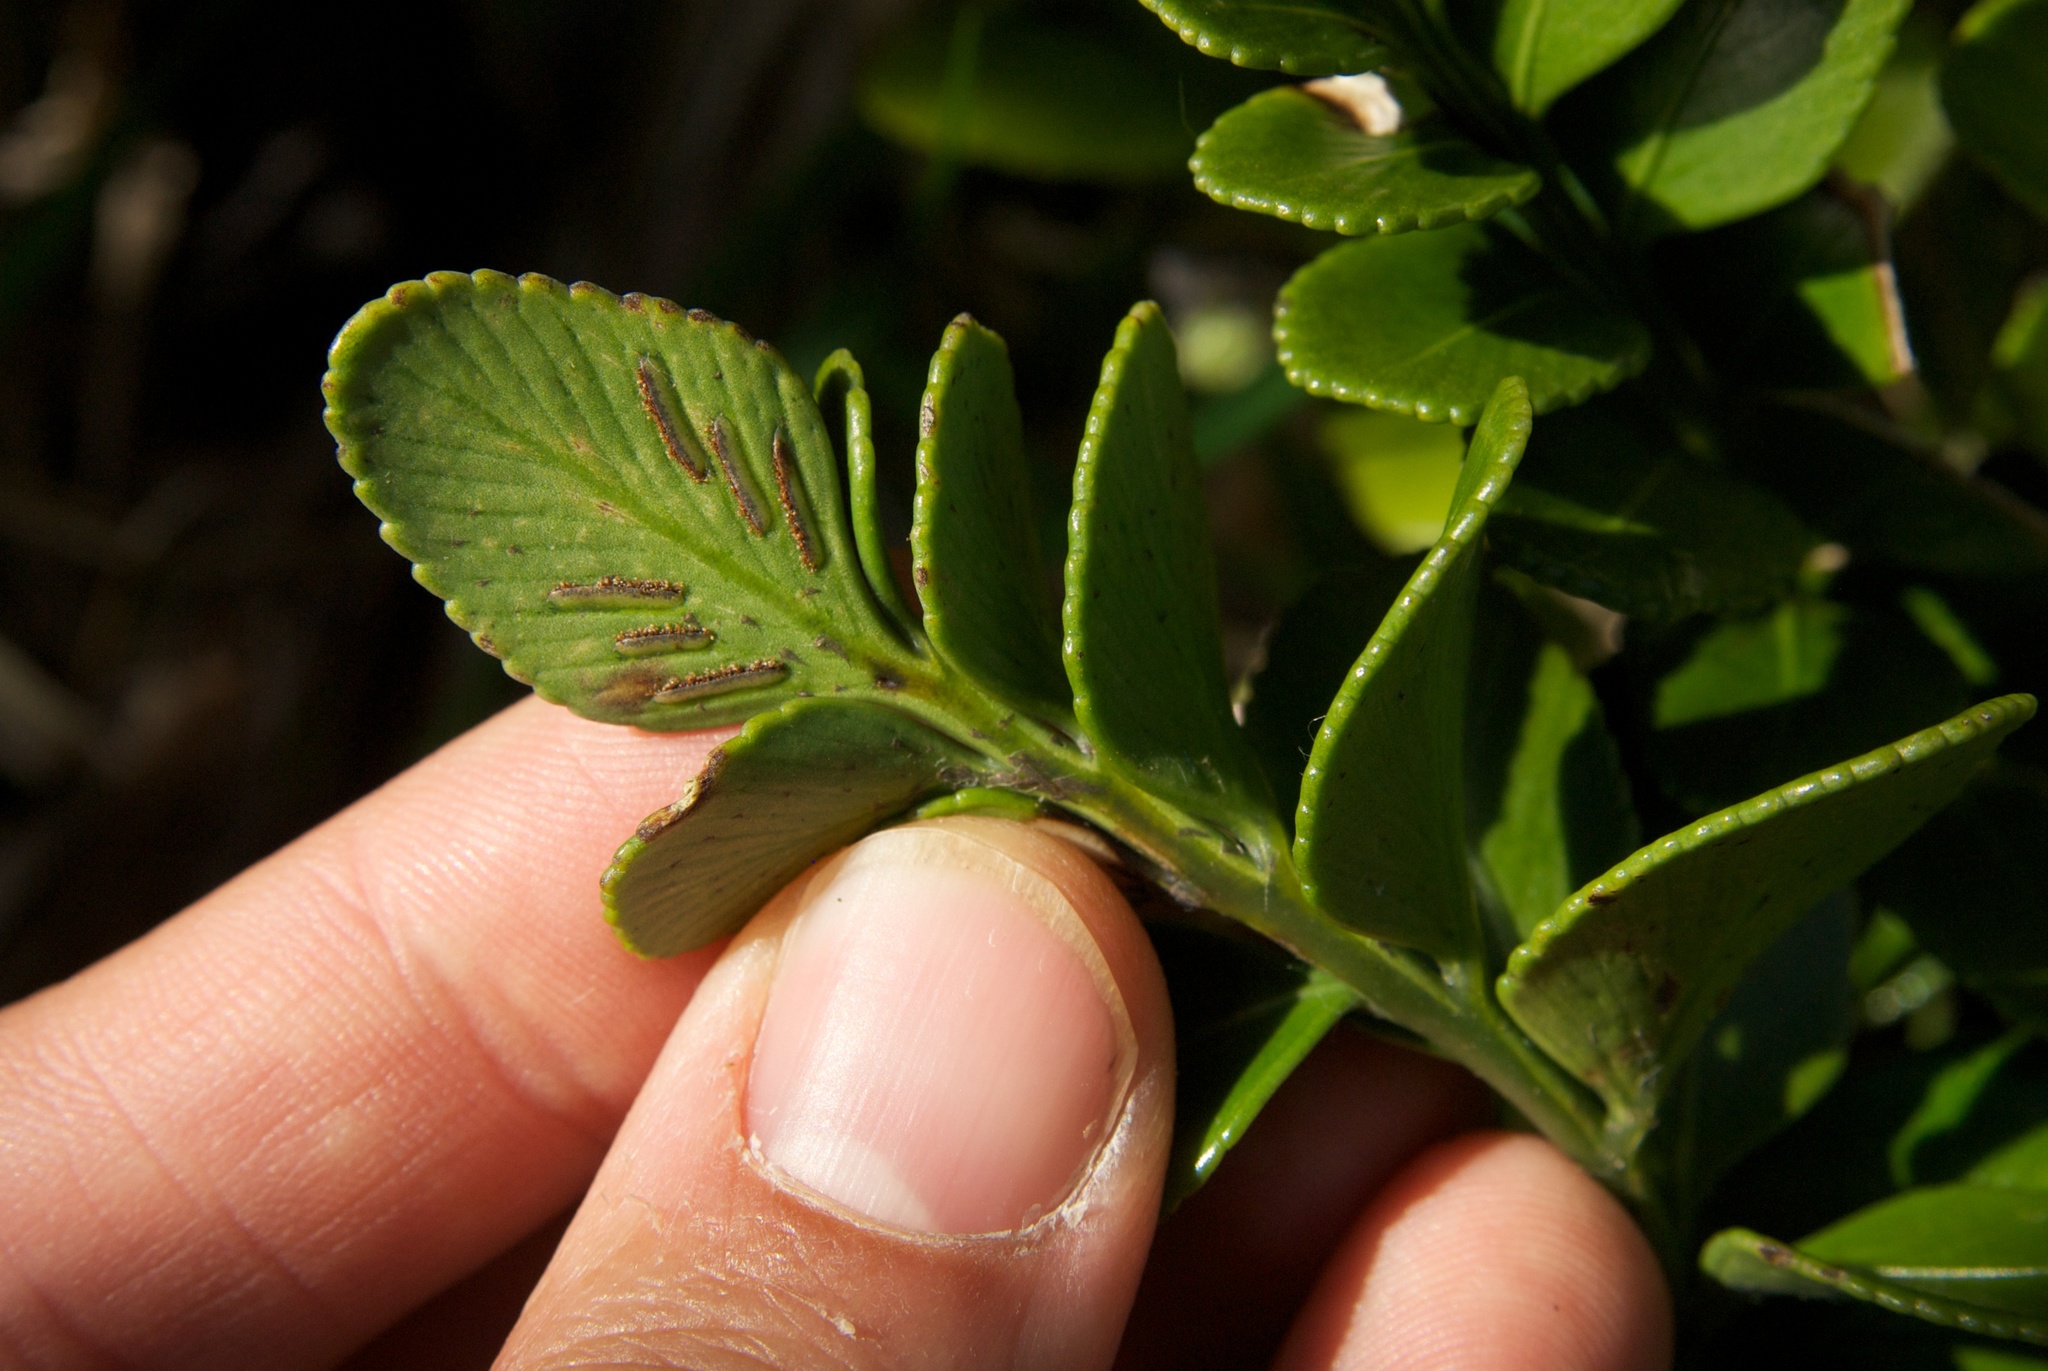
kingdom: Plantae
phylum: Tracheophyta
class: Polypodiopsida
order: Polypodiales
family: Aspleniaceae
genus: Asplenium
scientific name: Asplenium obtusatum
